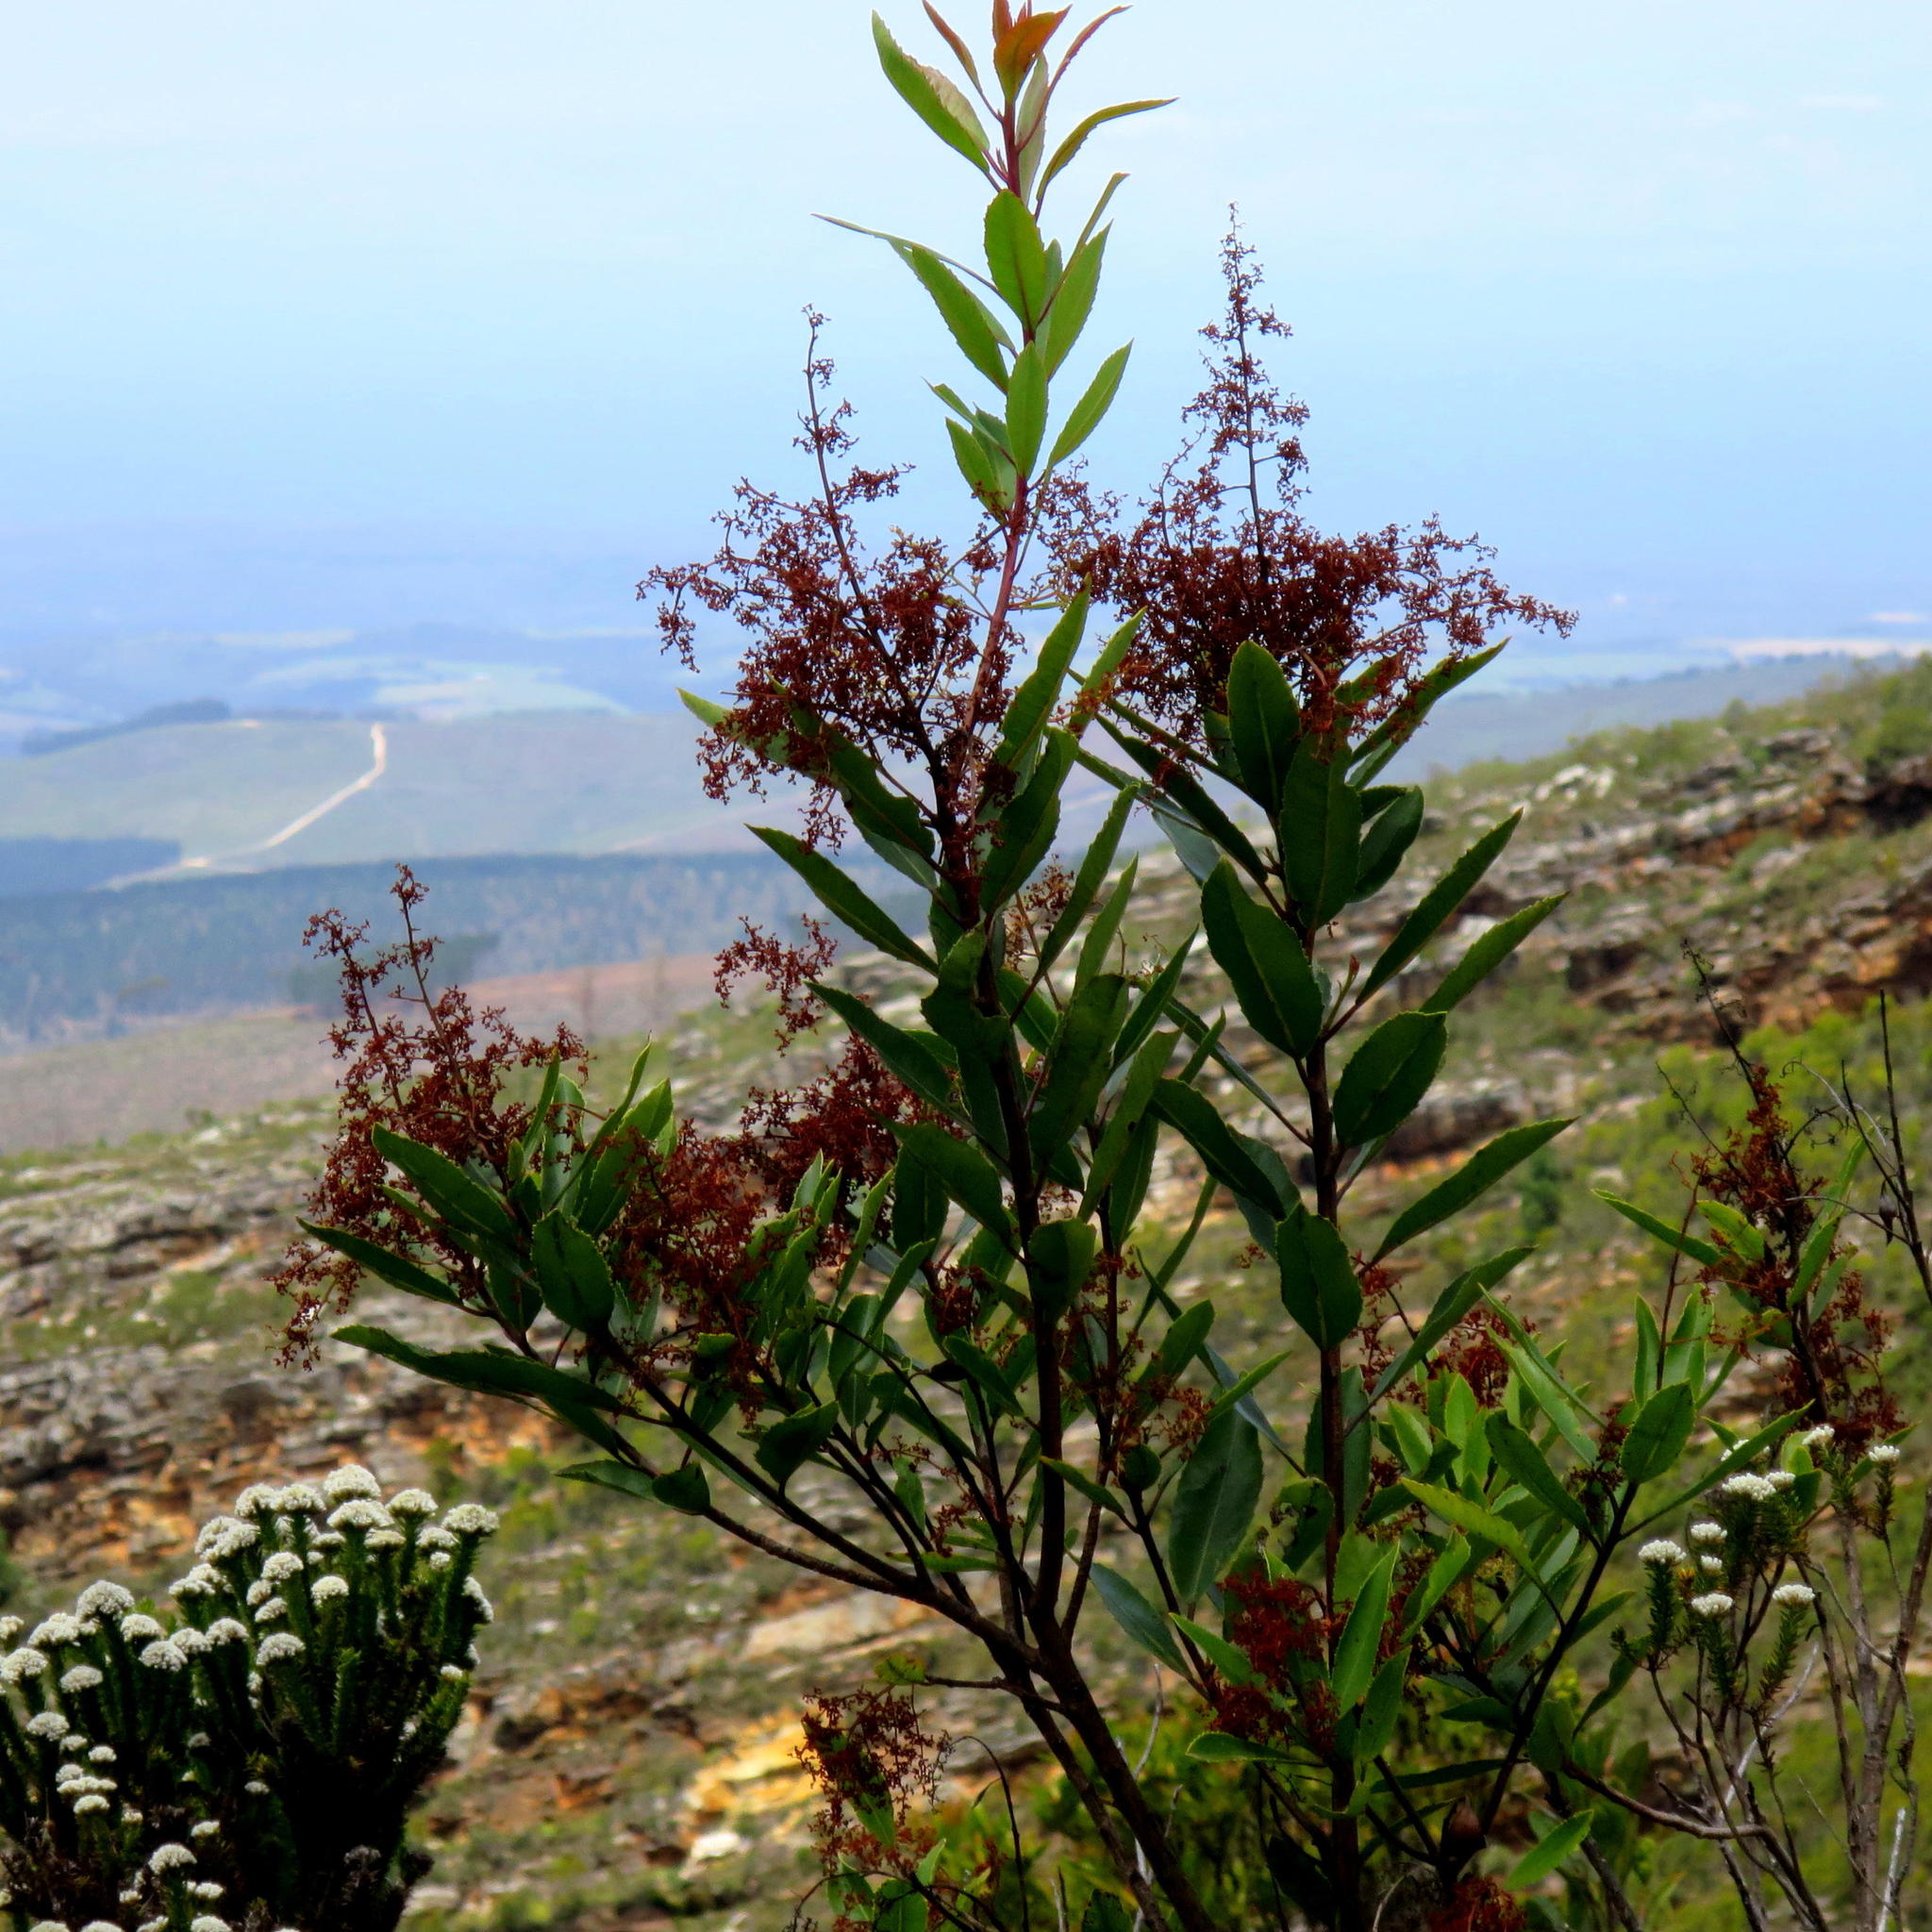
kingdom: Plantae
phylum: Tracheophyta
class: Magnoliopsida
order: Sapindales
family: Anacardiaceae
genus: Laurophyllus
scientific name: Laurophyllus capensis
